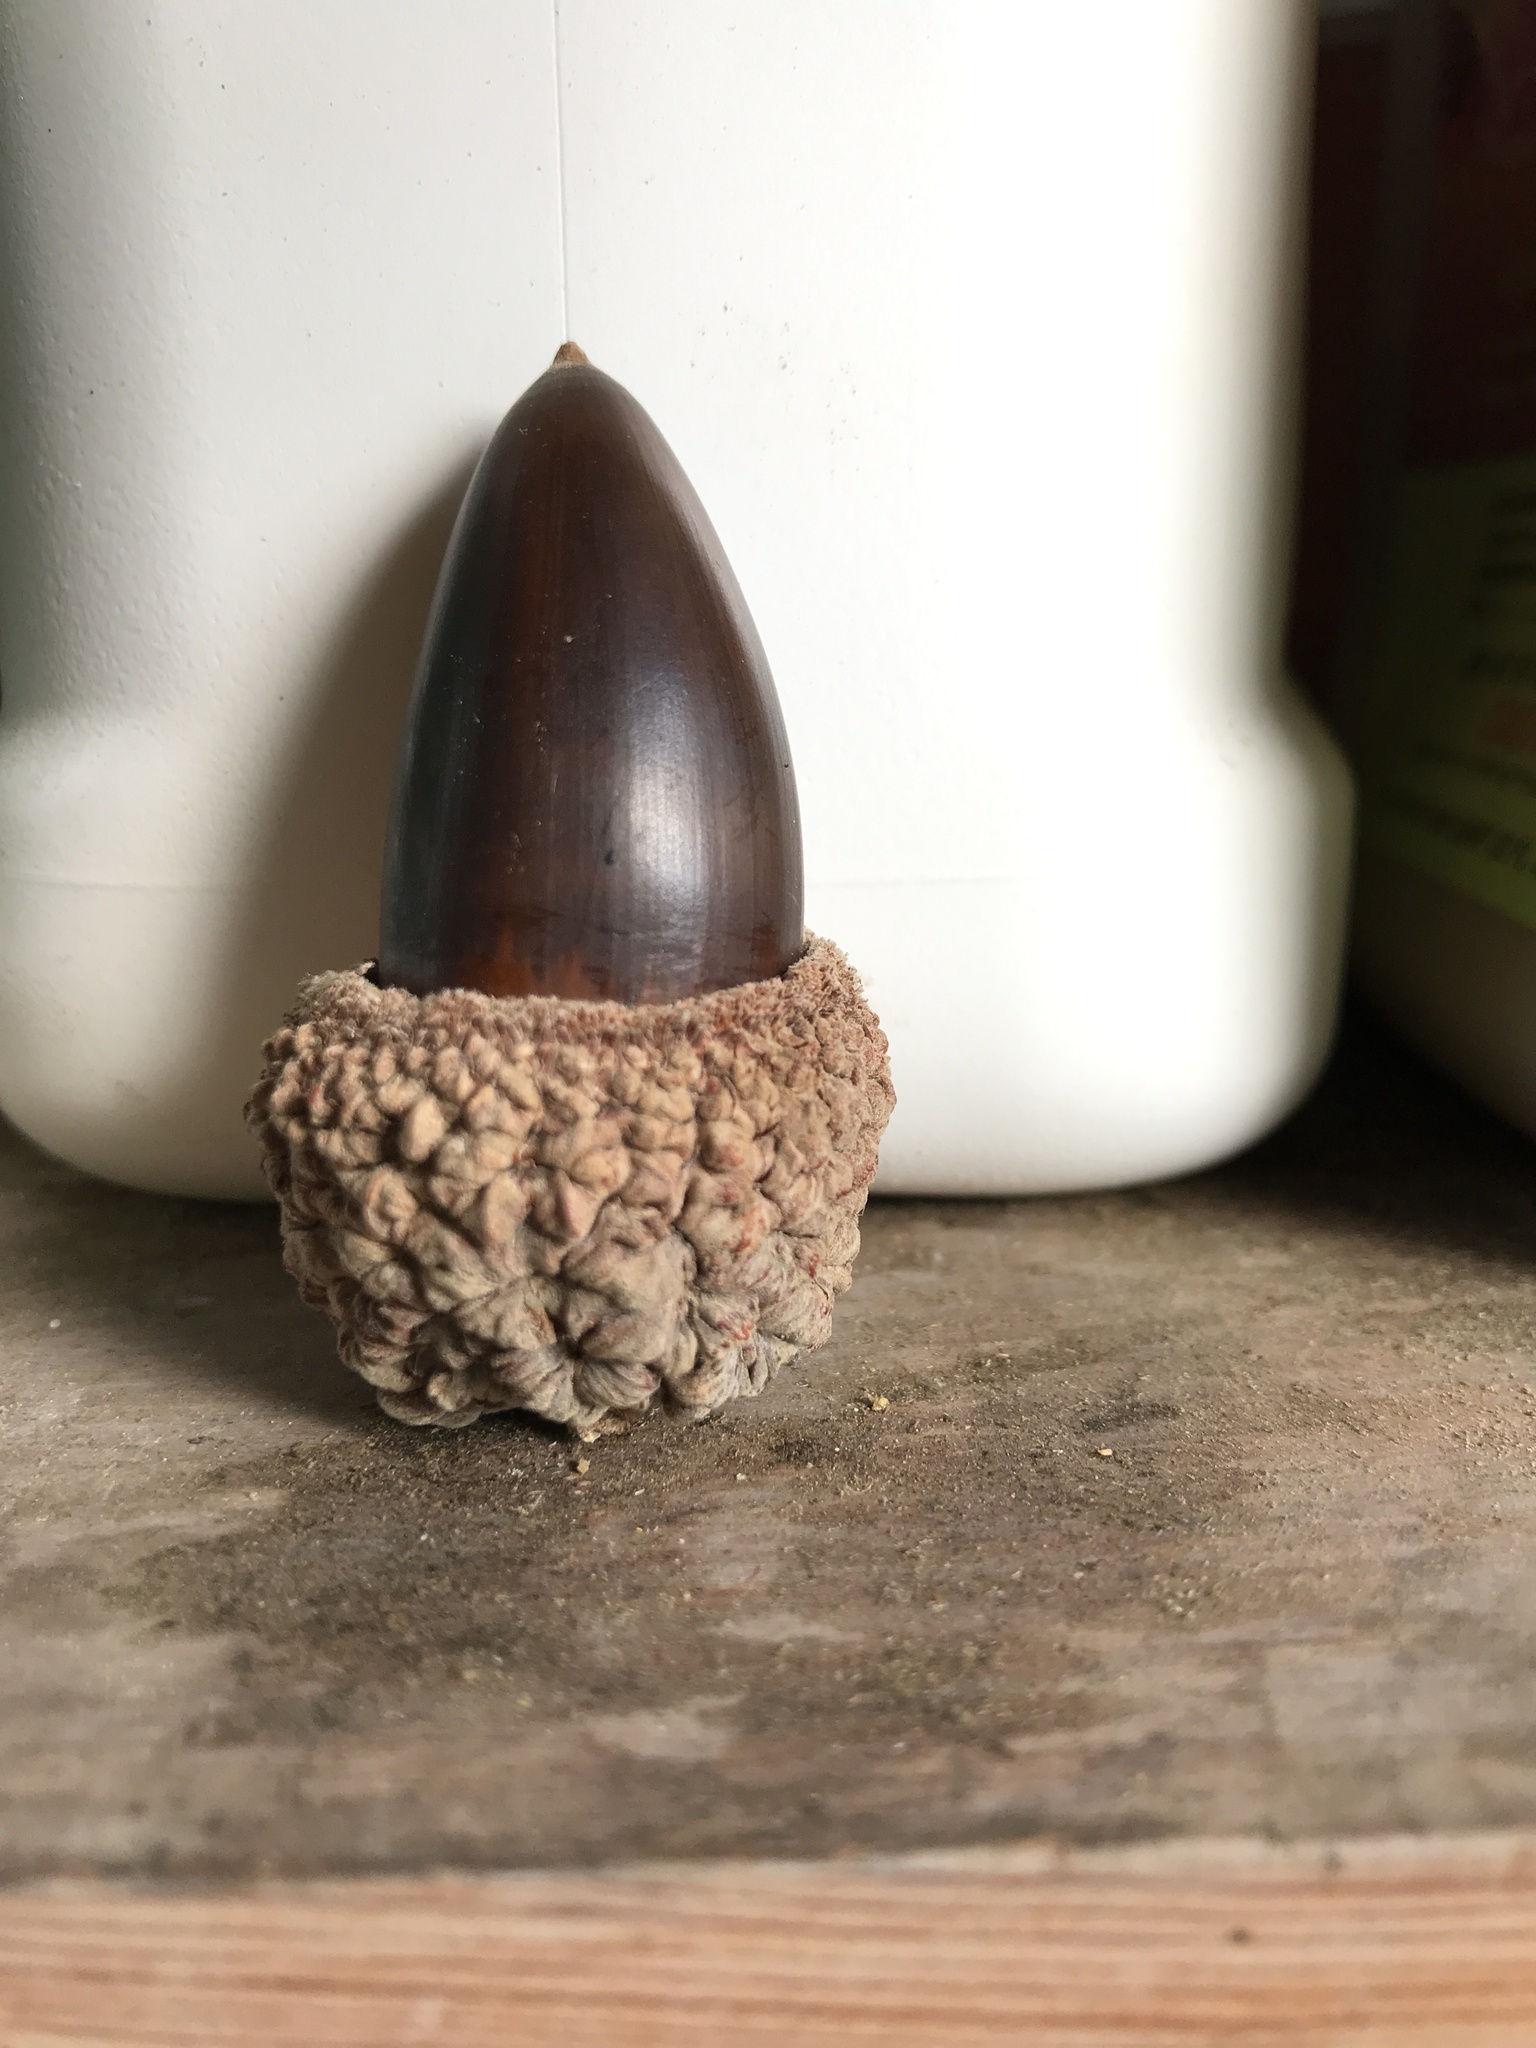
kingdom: Plantae
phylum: Tracheophyta
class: Magnoliopsida
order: Fagales
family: Fagaceae
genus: Quercus
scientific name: Quercus lobata
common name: Valley oak
